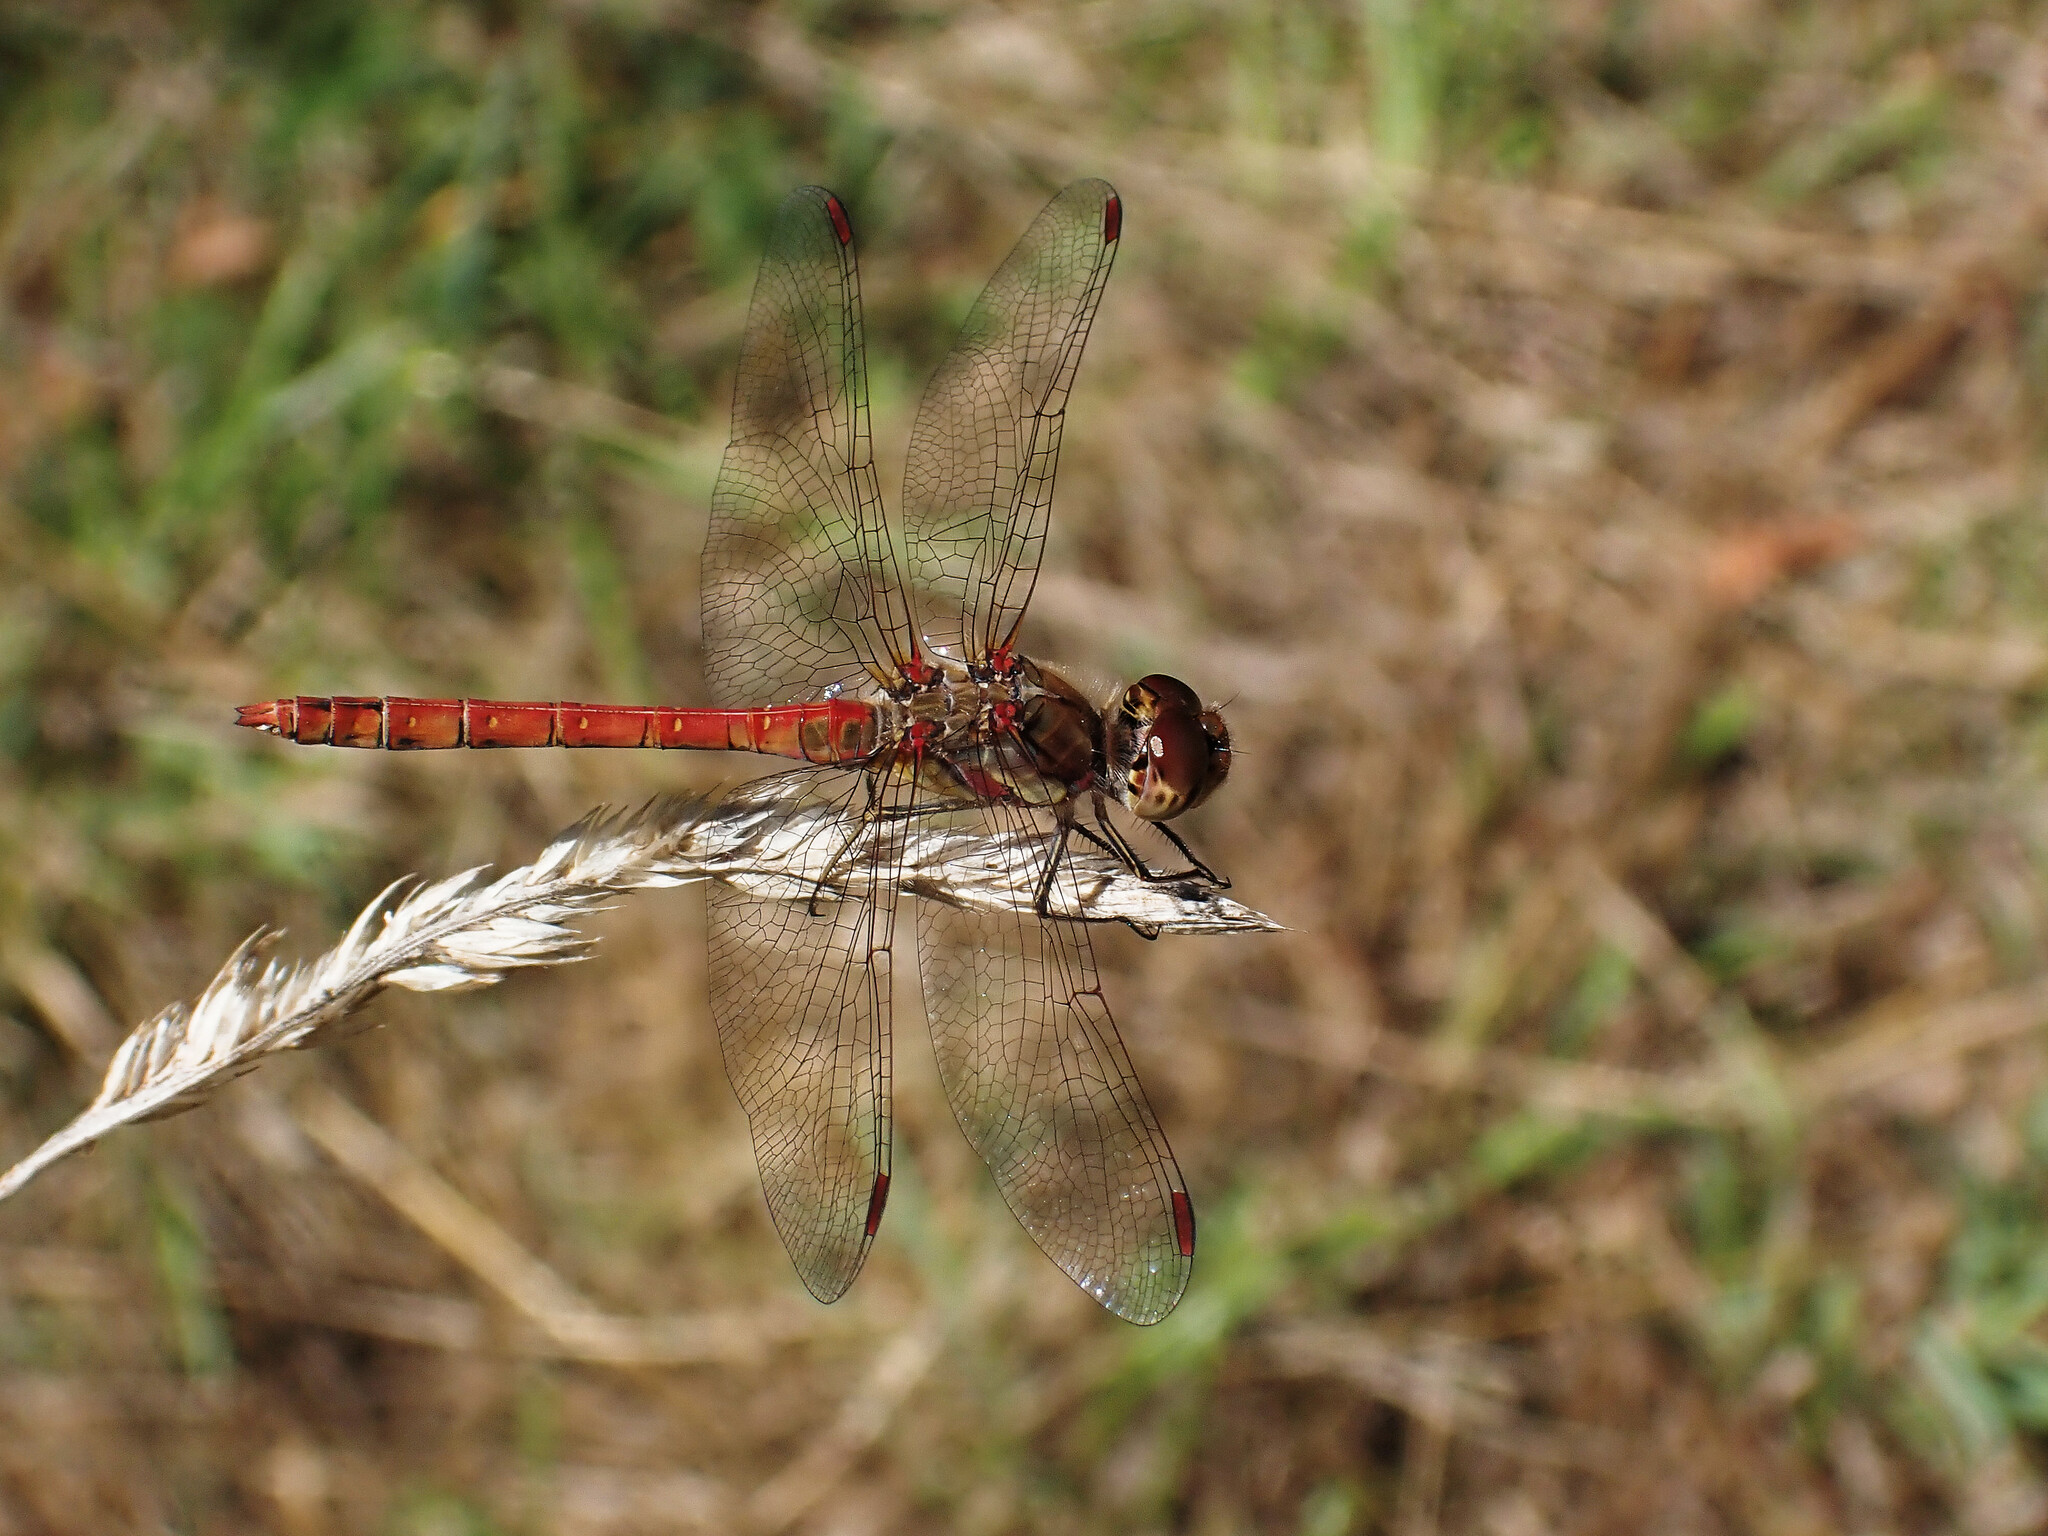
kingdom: Animalia
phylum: Arthropoda
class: Insecta
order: Odonata
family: Libellulidae
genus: Sympetrum
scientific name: Sympetrum striolatum
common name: Common darter
